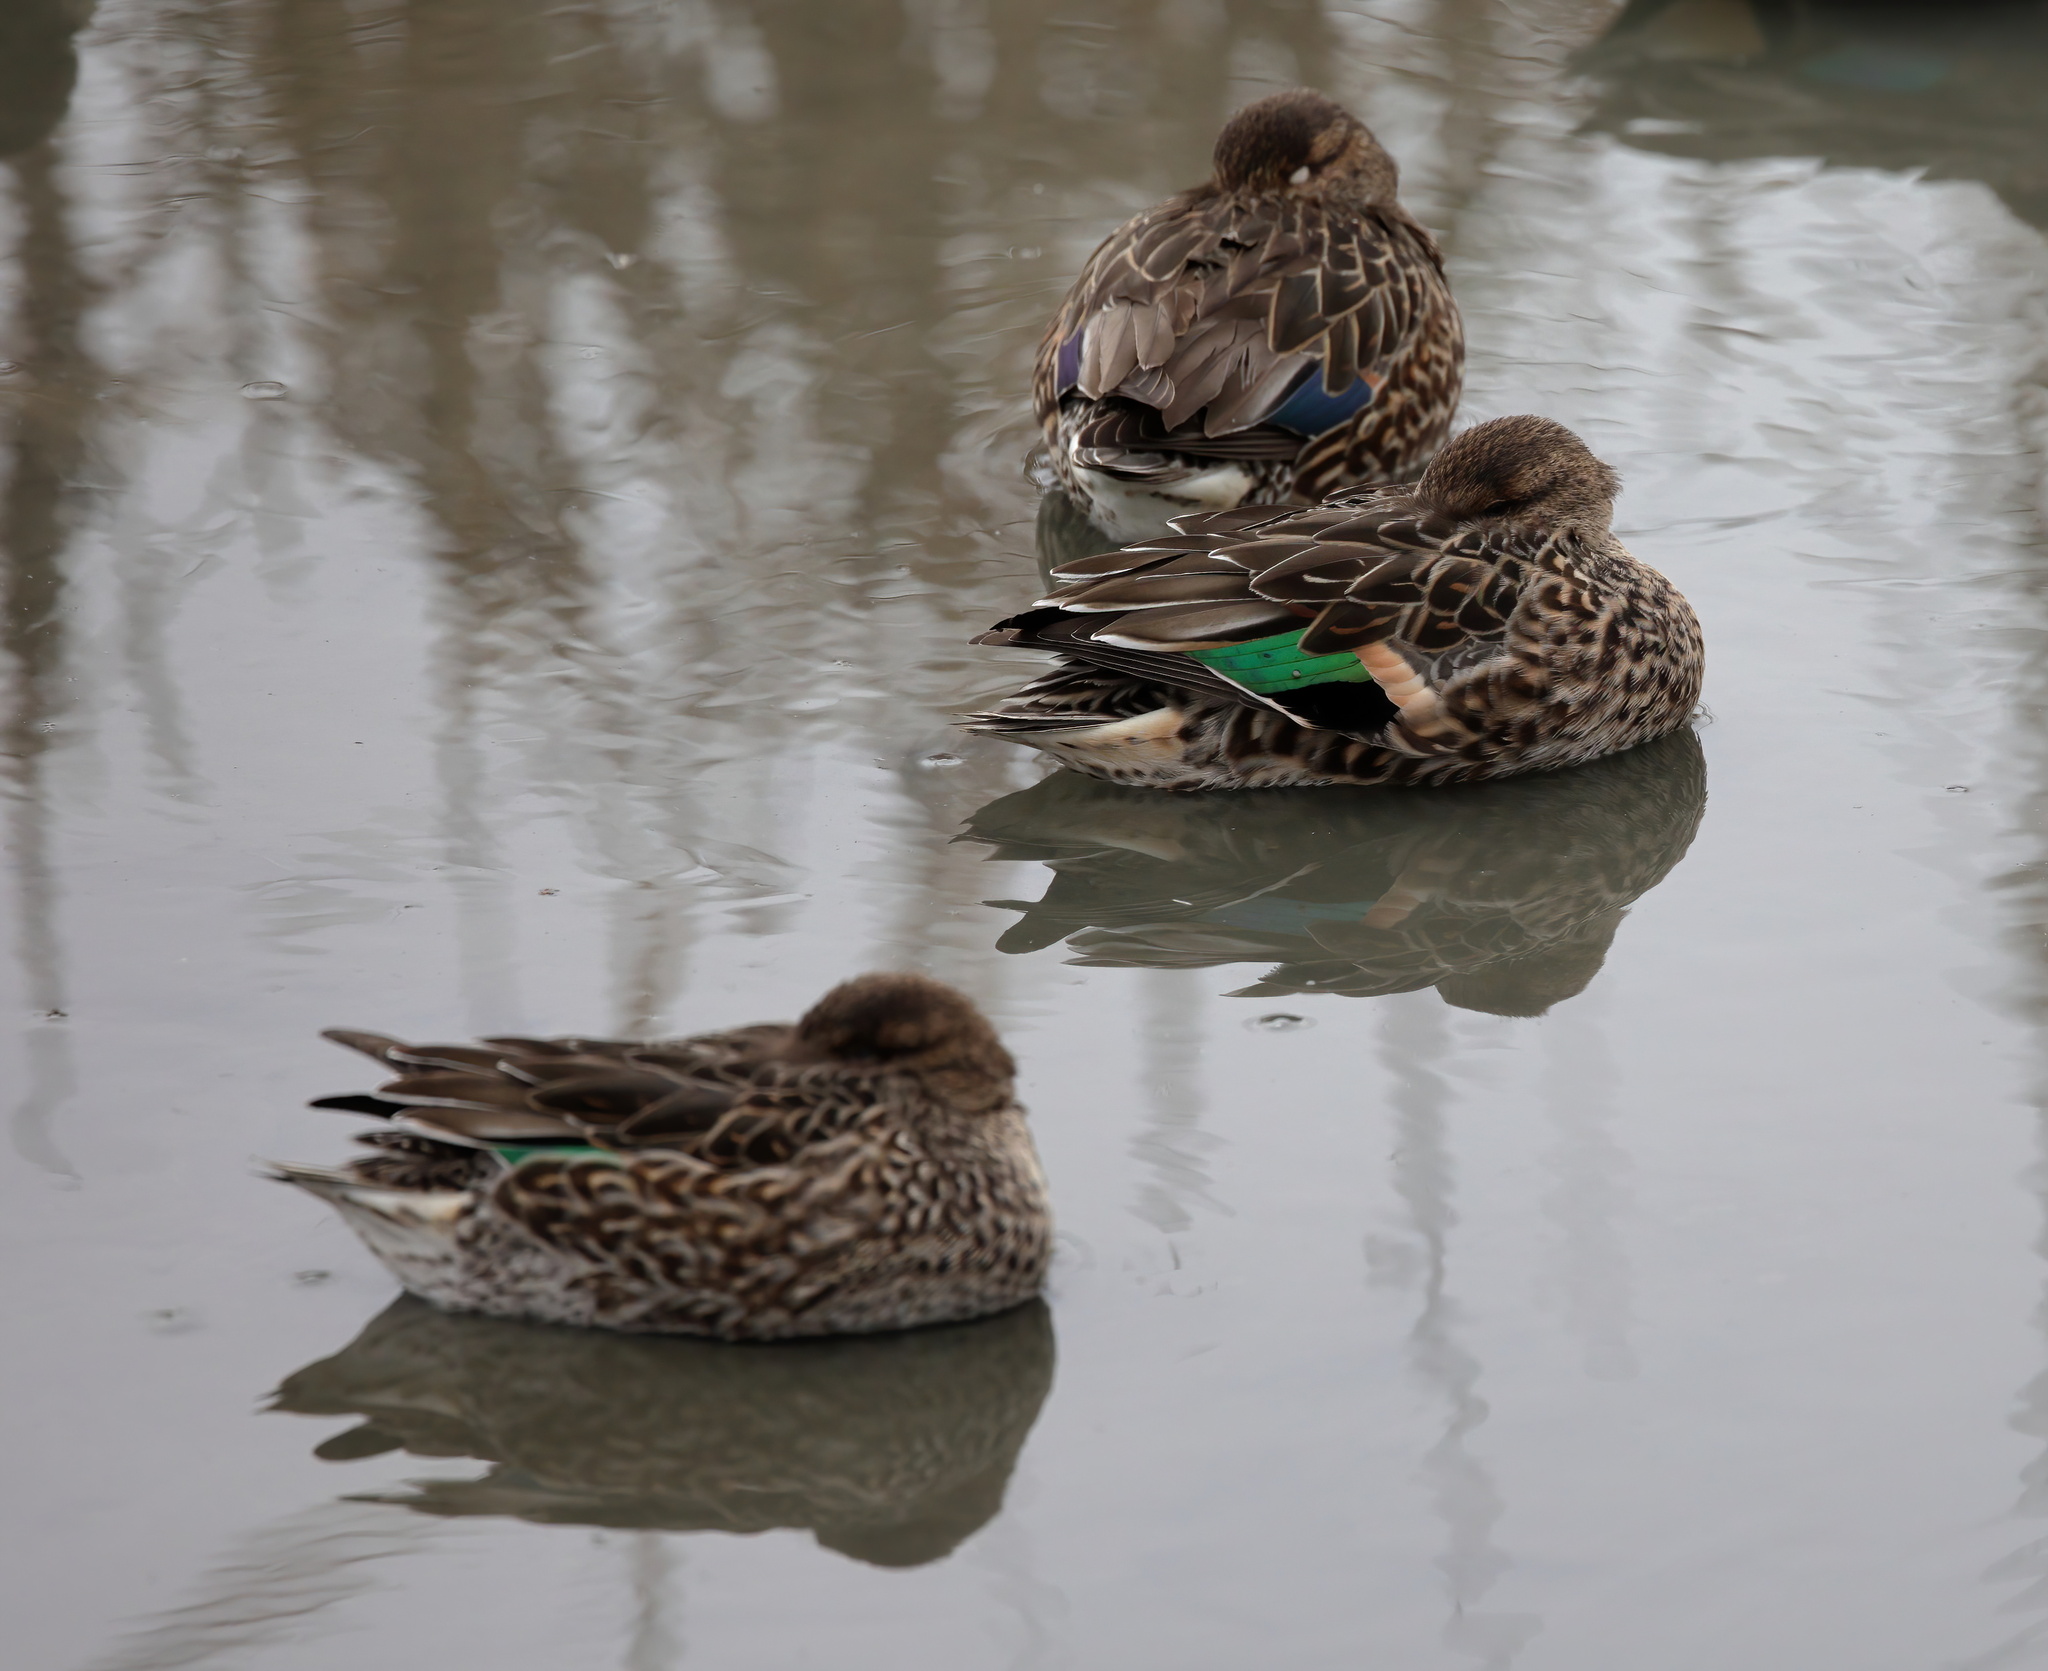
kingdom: Animalia
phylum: Chordata
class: Aves
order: Anseriformes
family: Anatidae
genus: Anas
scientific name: Anas crecca
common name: Eurasian teal
